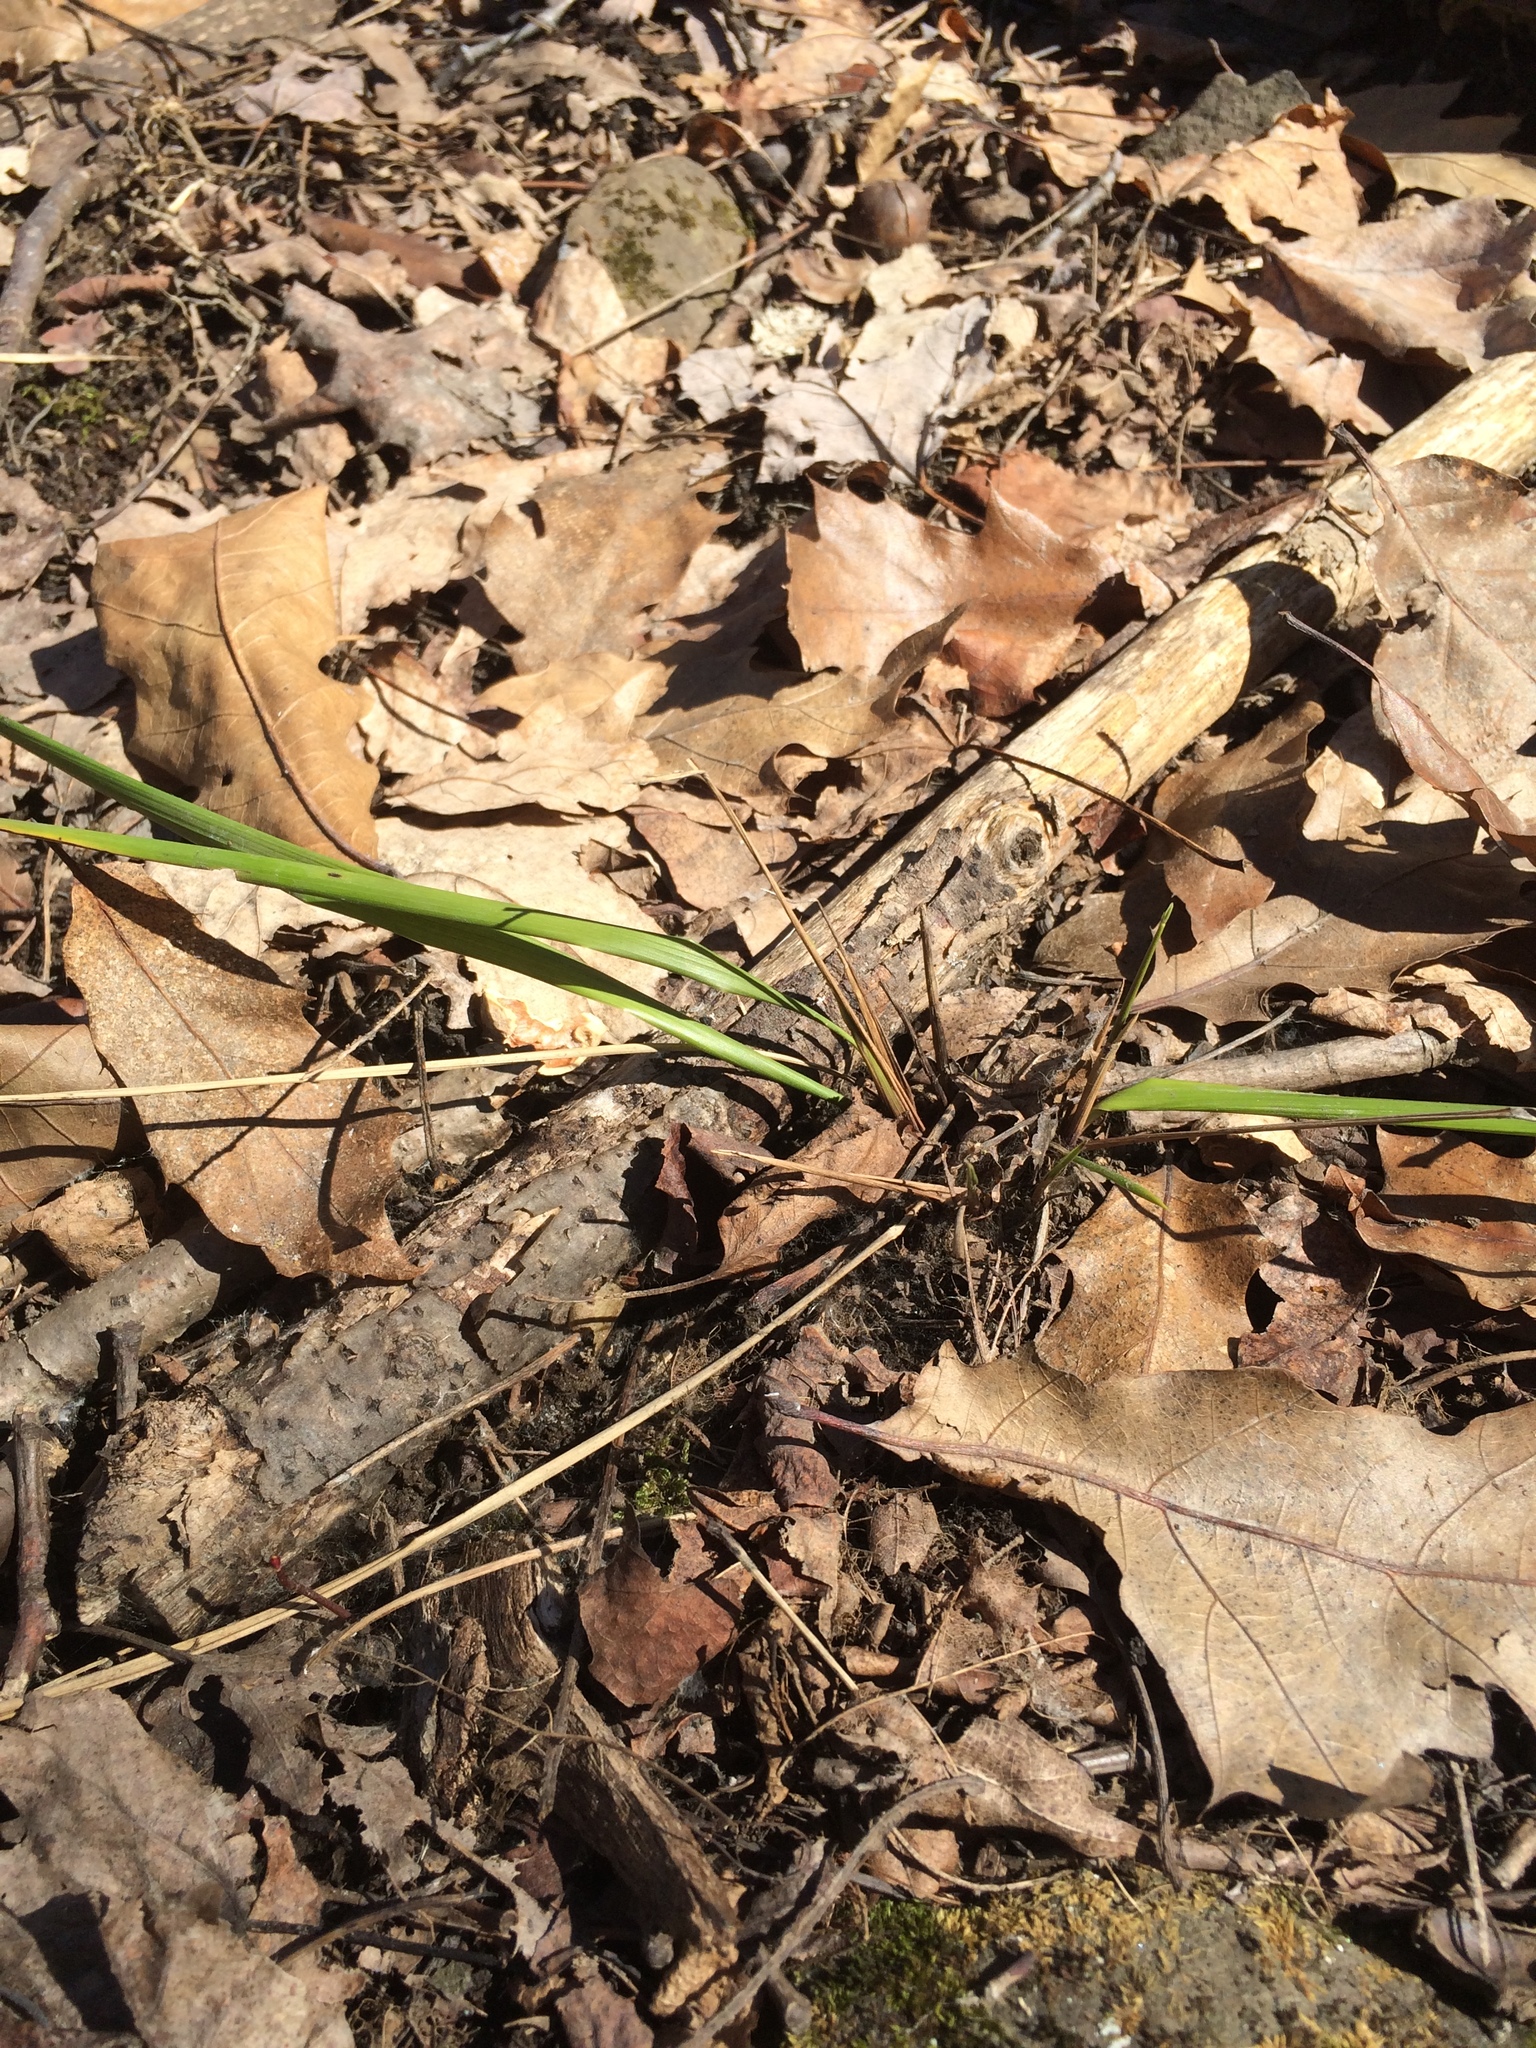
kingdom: Plantae
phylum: Tracheophyta
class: Liliopsida
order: Poales
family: Poaceae
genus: Oryzopsis
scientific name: Oryzopsis asperifolia
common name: Rough-leaved mountain rice
